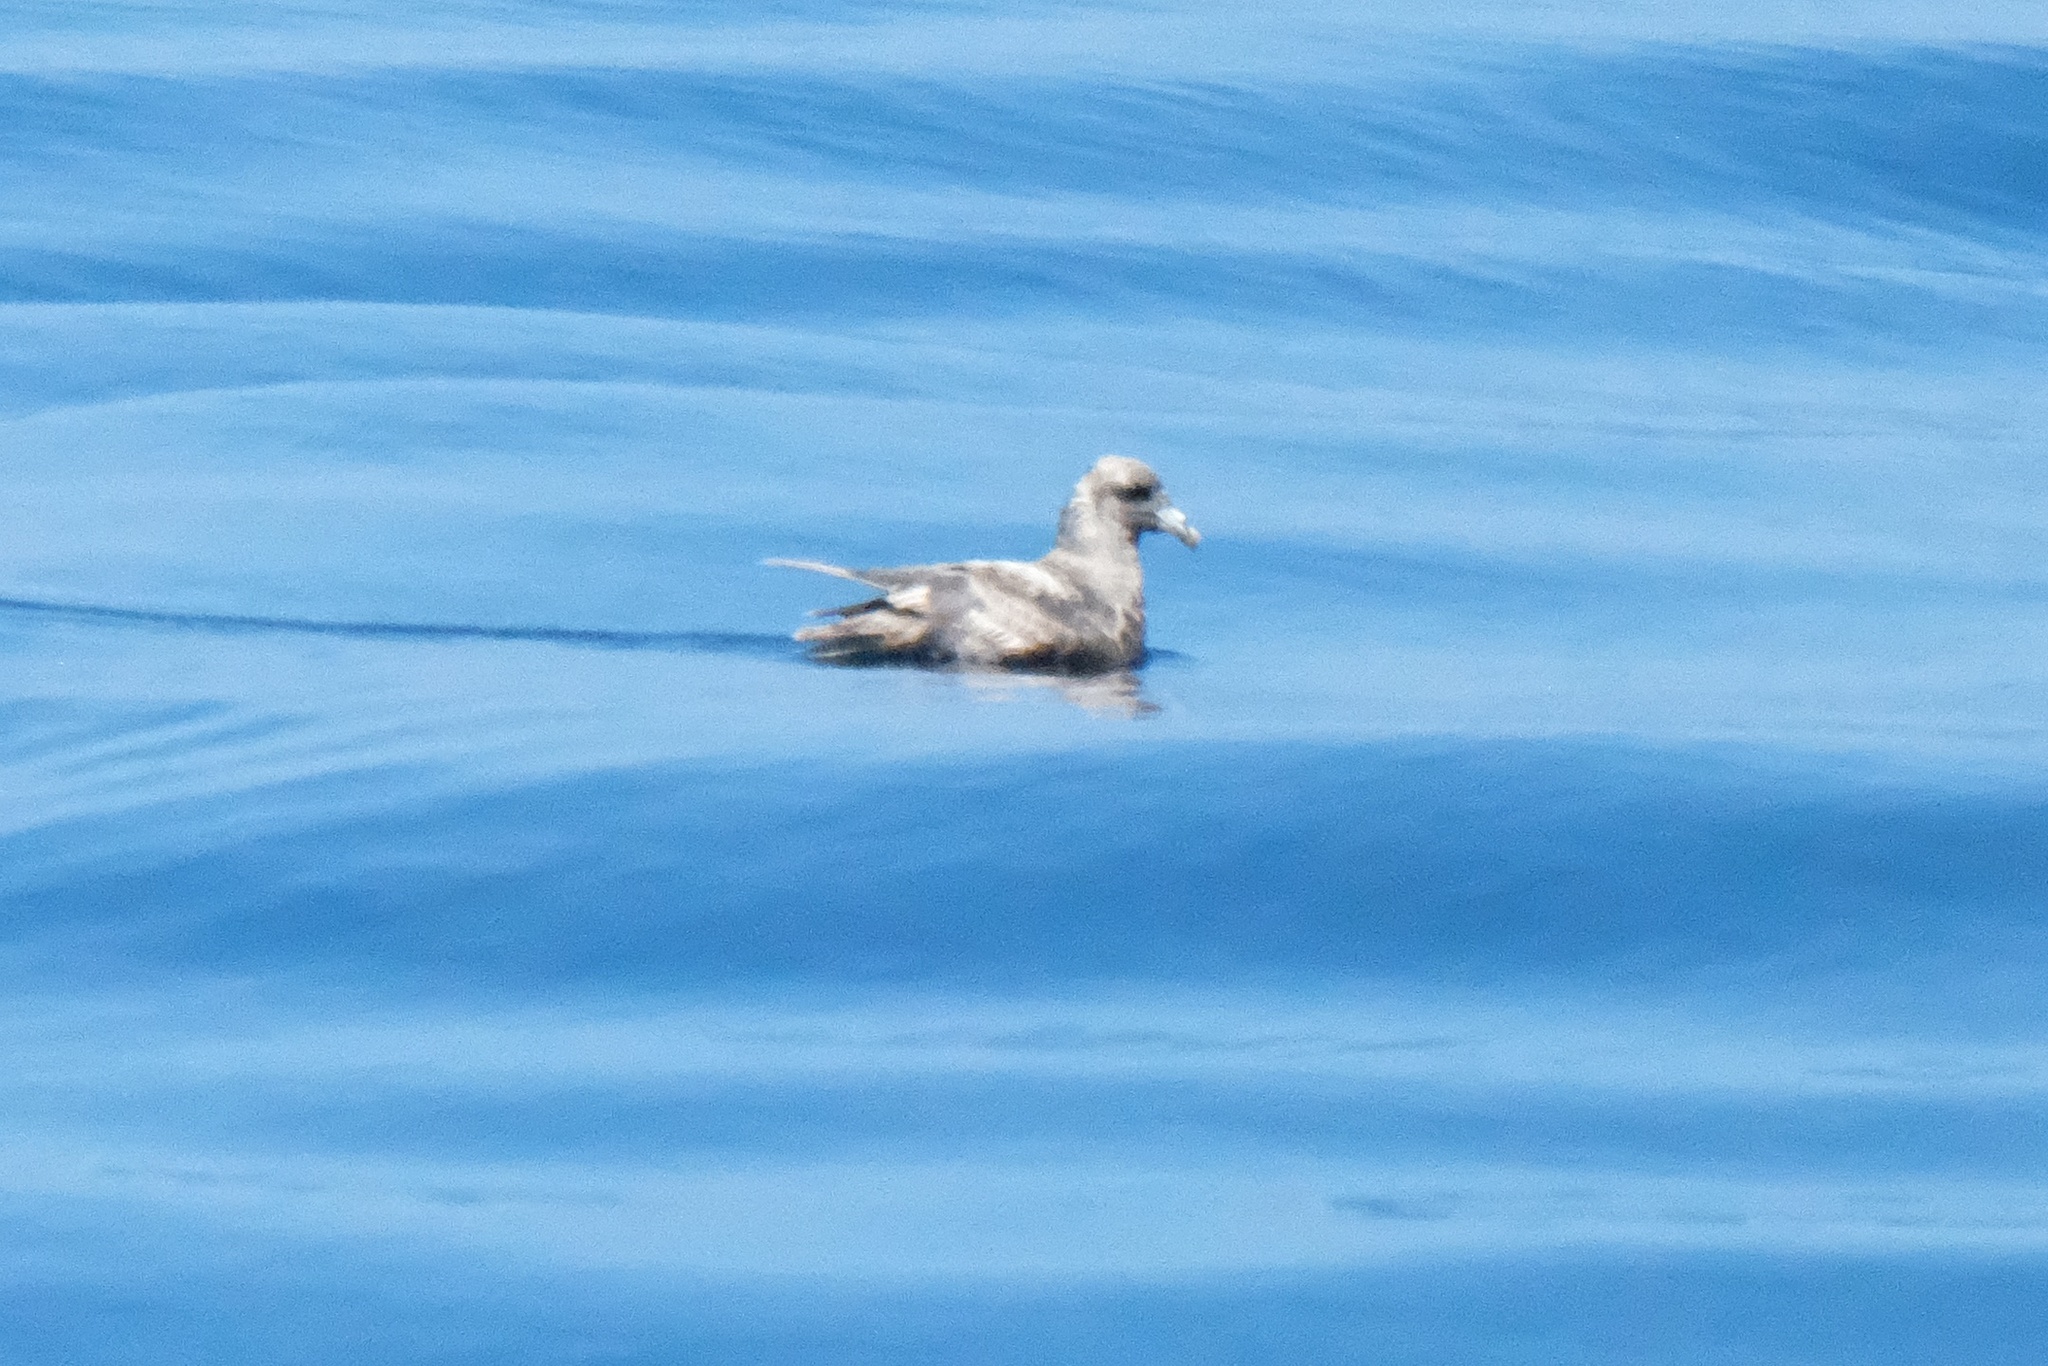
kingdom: Animalia
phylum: Chordata
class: Aves
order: Procellariiformes
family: Procellariidae
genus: Fulmarus
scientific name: Fulmarus glacialis
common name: Northern fulmar
